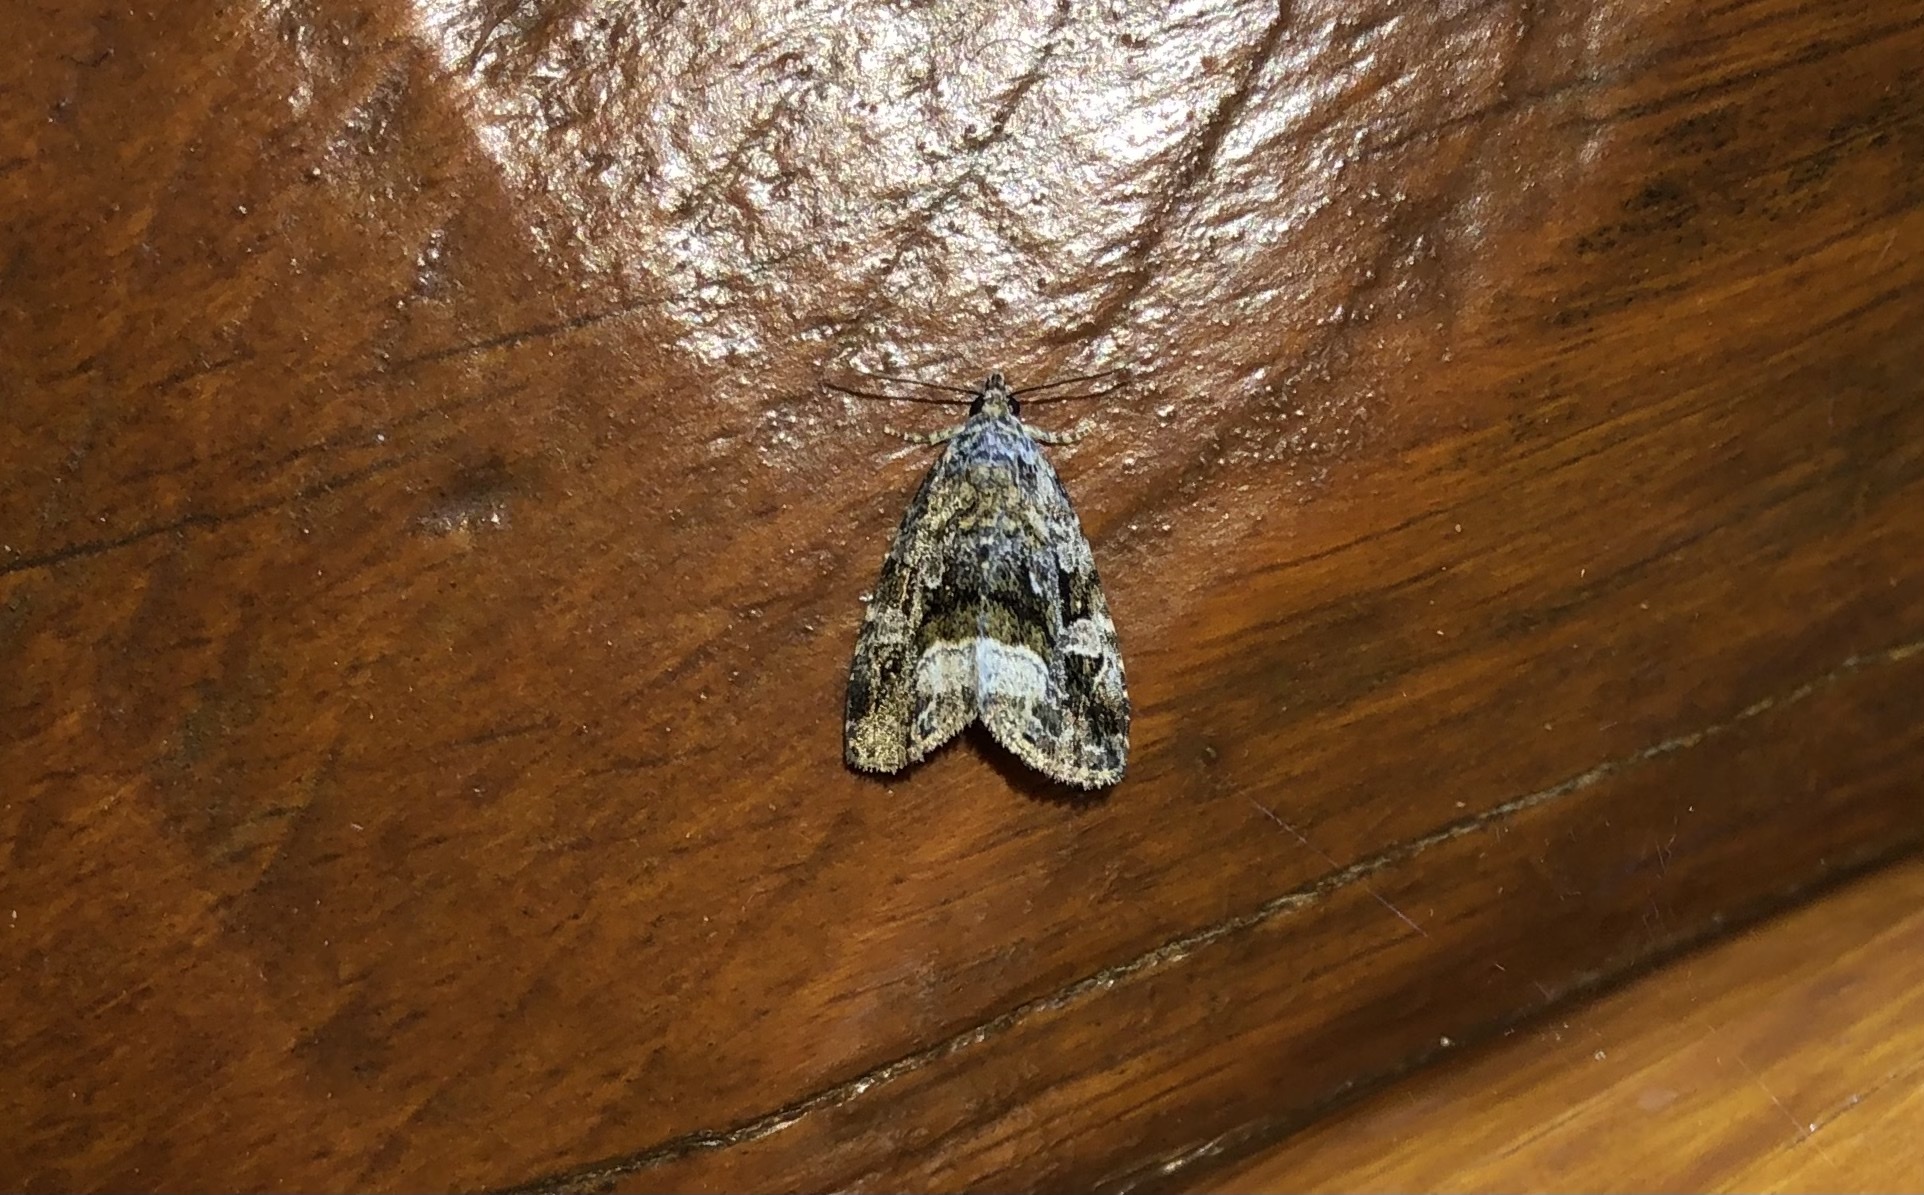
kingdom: Animalia
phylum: Arthropoda
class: Insecta
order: Lepidoptera
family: Noctuidae
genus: Protodeltote
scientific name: Protodeltote muscosula
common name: Large mossy glyph
